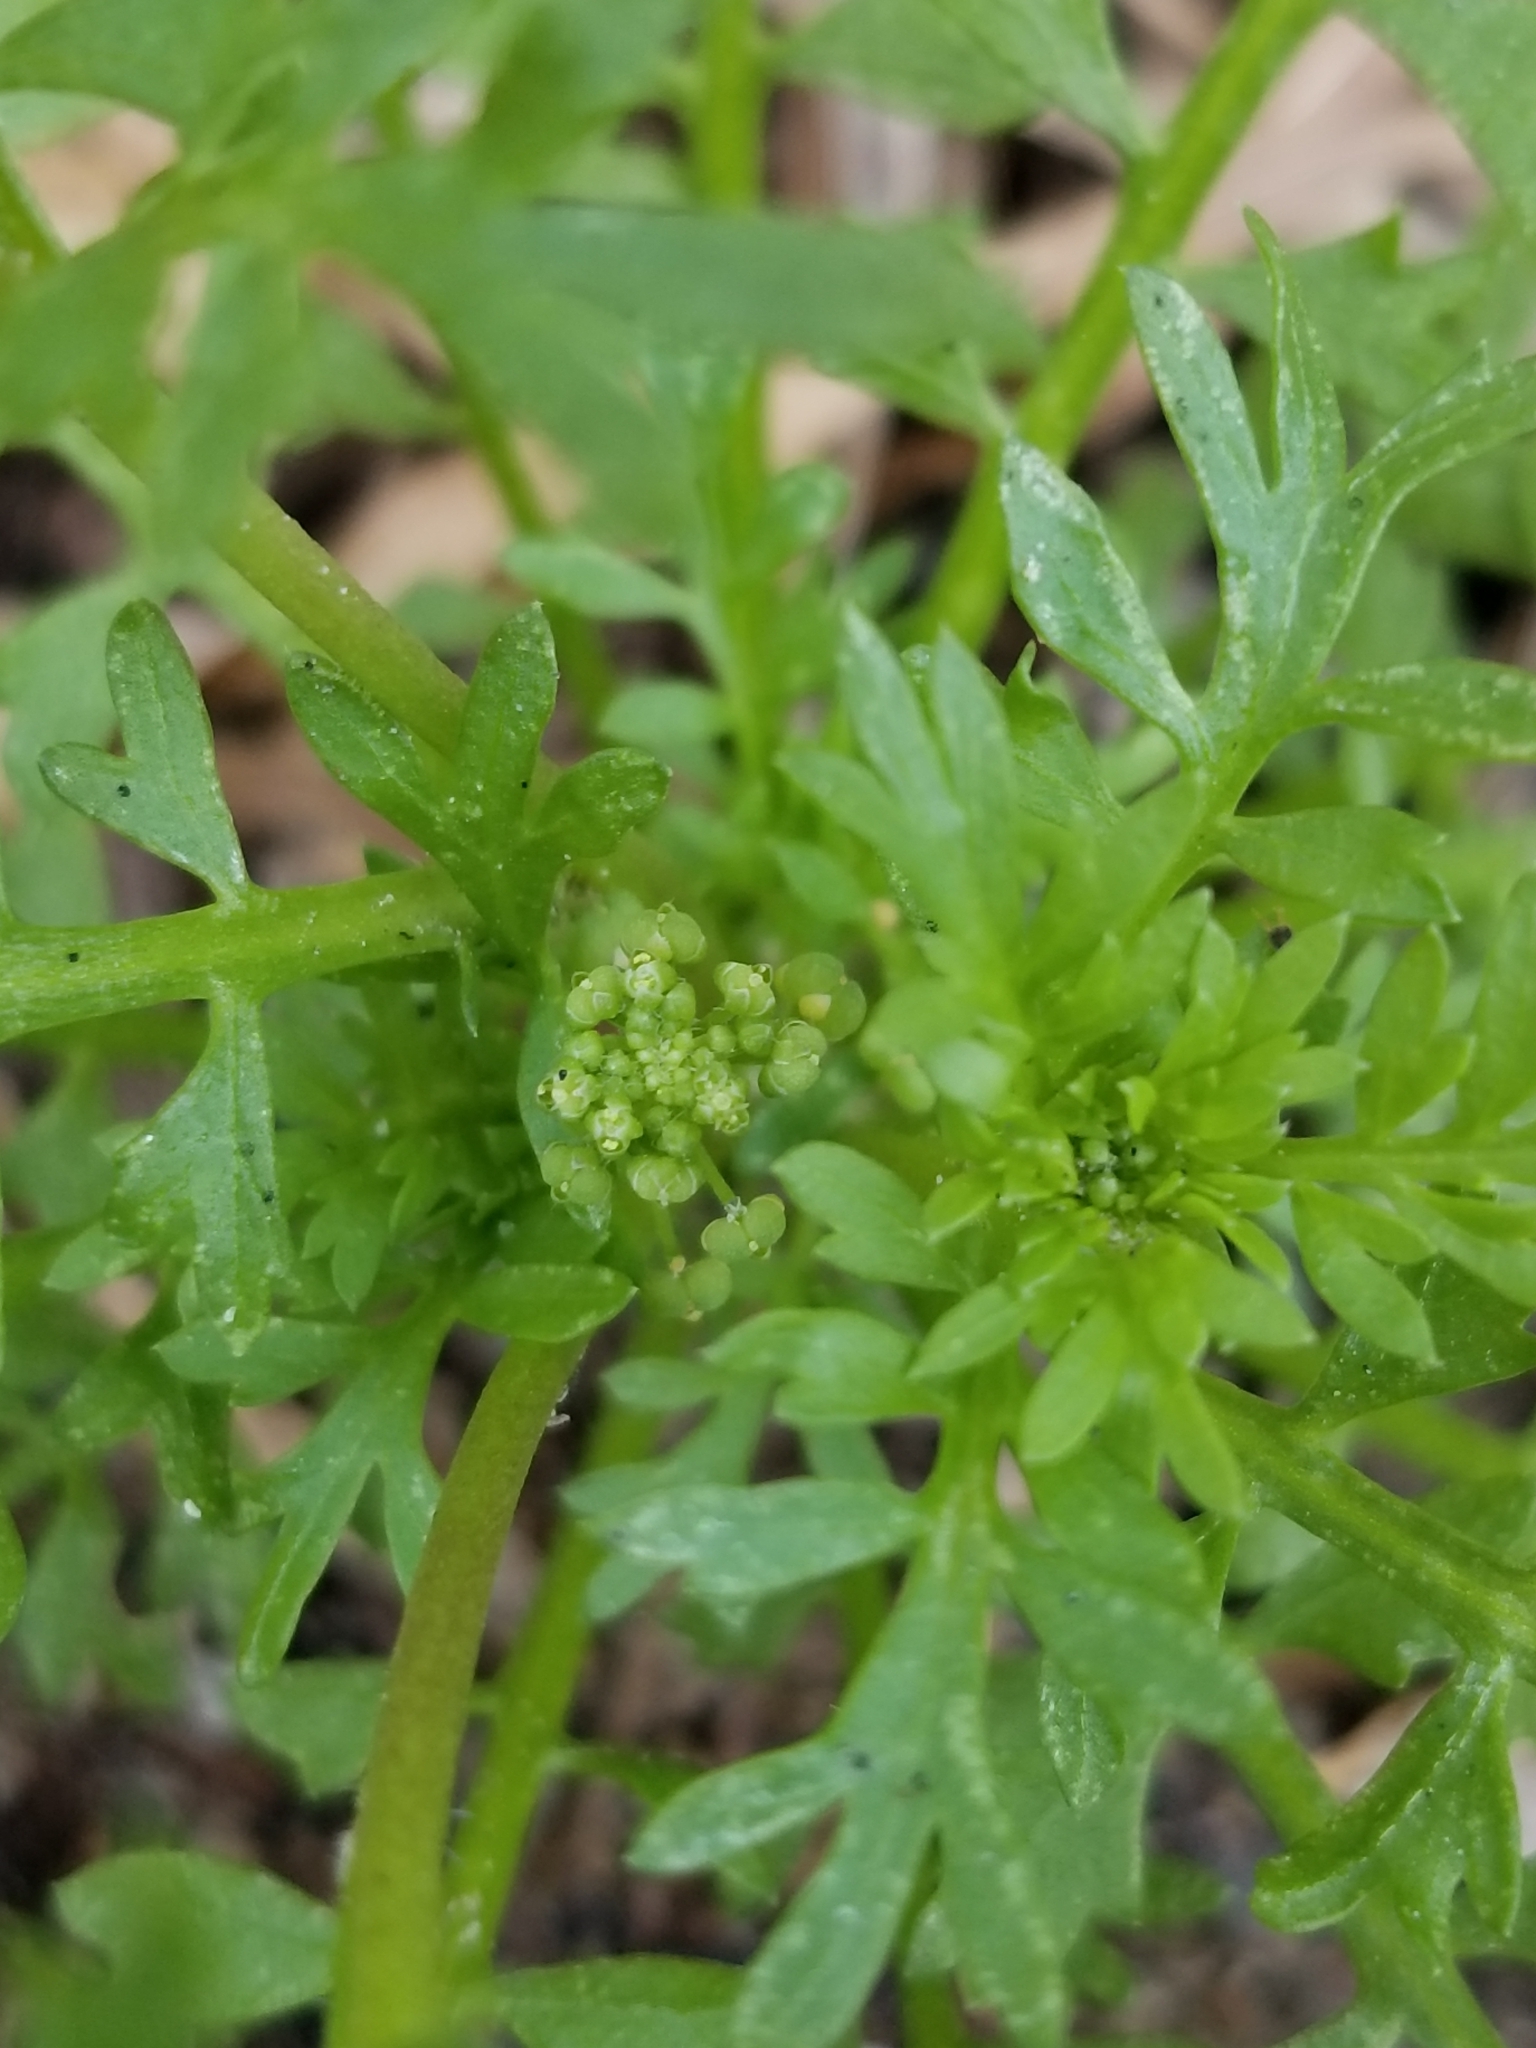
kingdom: Plantae
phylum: Tracheophyta
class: Magnoliopsida
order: Brassicales
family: Brassicaceae
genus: Lepidium
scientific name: Lepidium didymum
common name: Lesser swinecress
